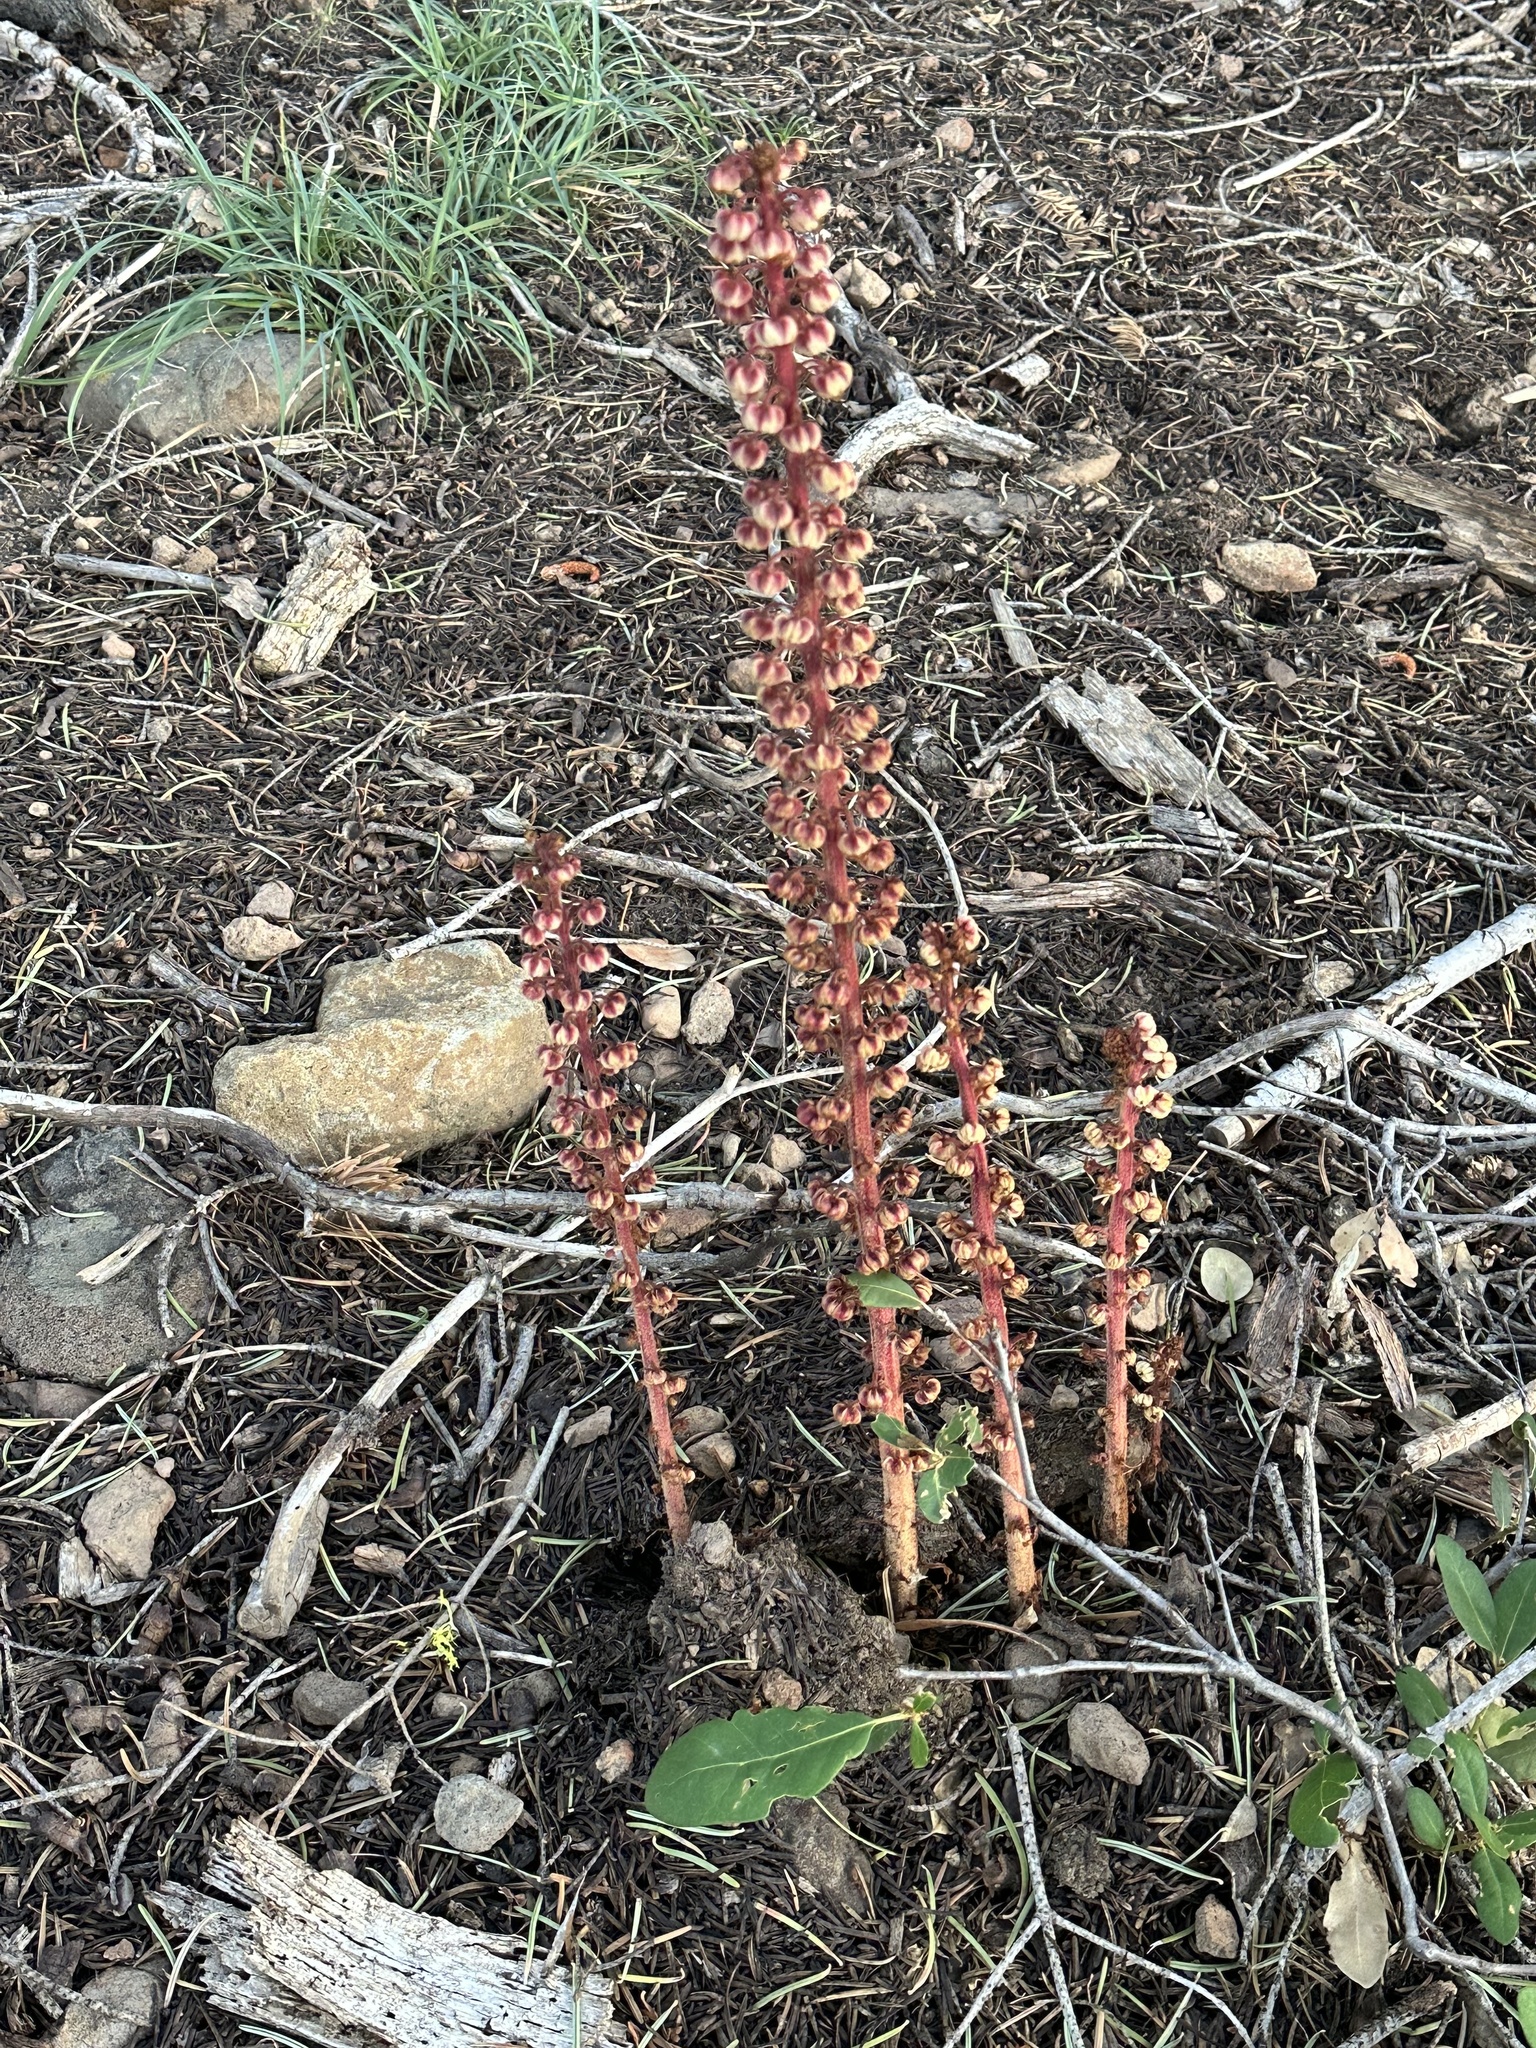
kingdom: Plantae
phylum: Tracheophyta
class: Magnoliopsida
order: Ericales
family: Ericaceae
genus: Pterospora
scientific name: Pterospora andromedea
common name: Giant bird's-nest
